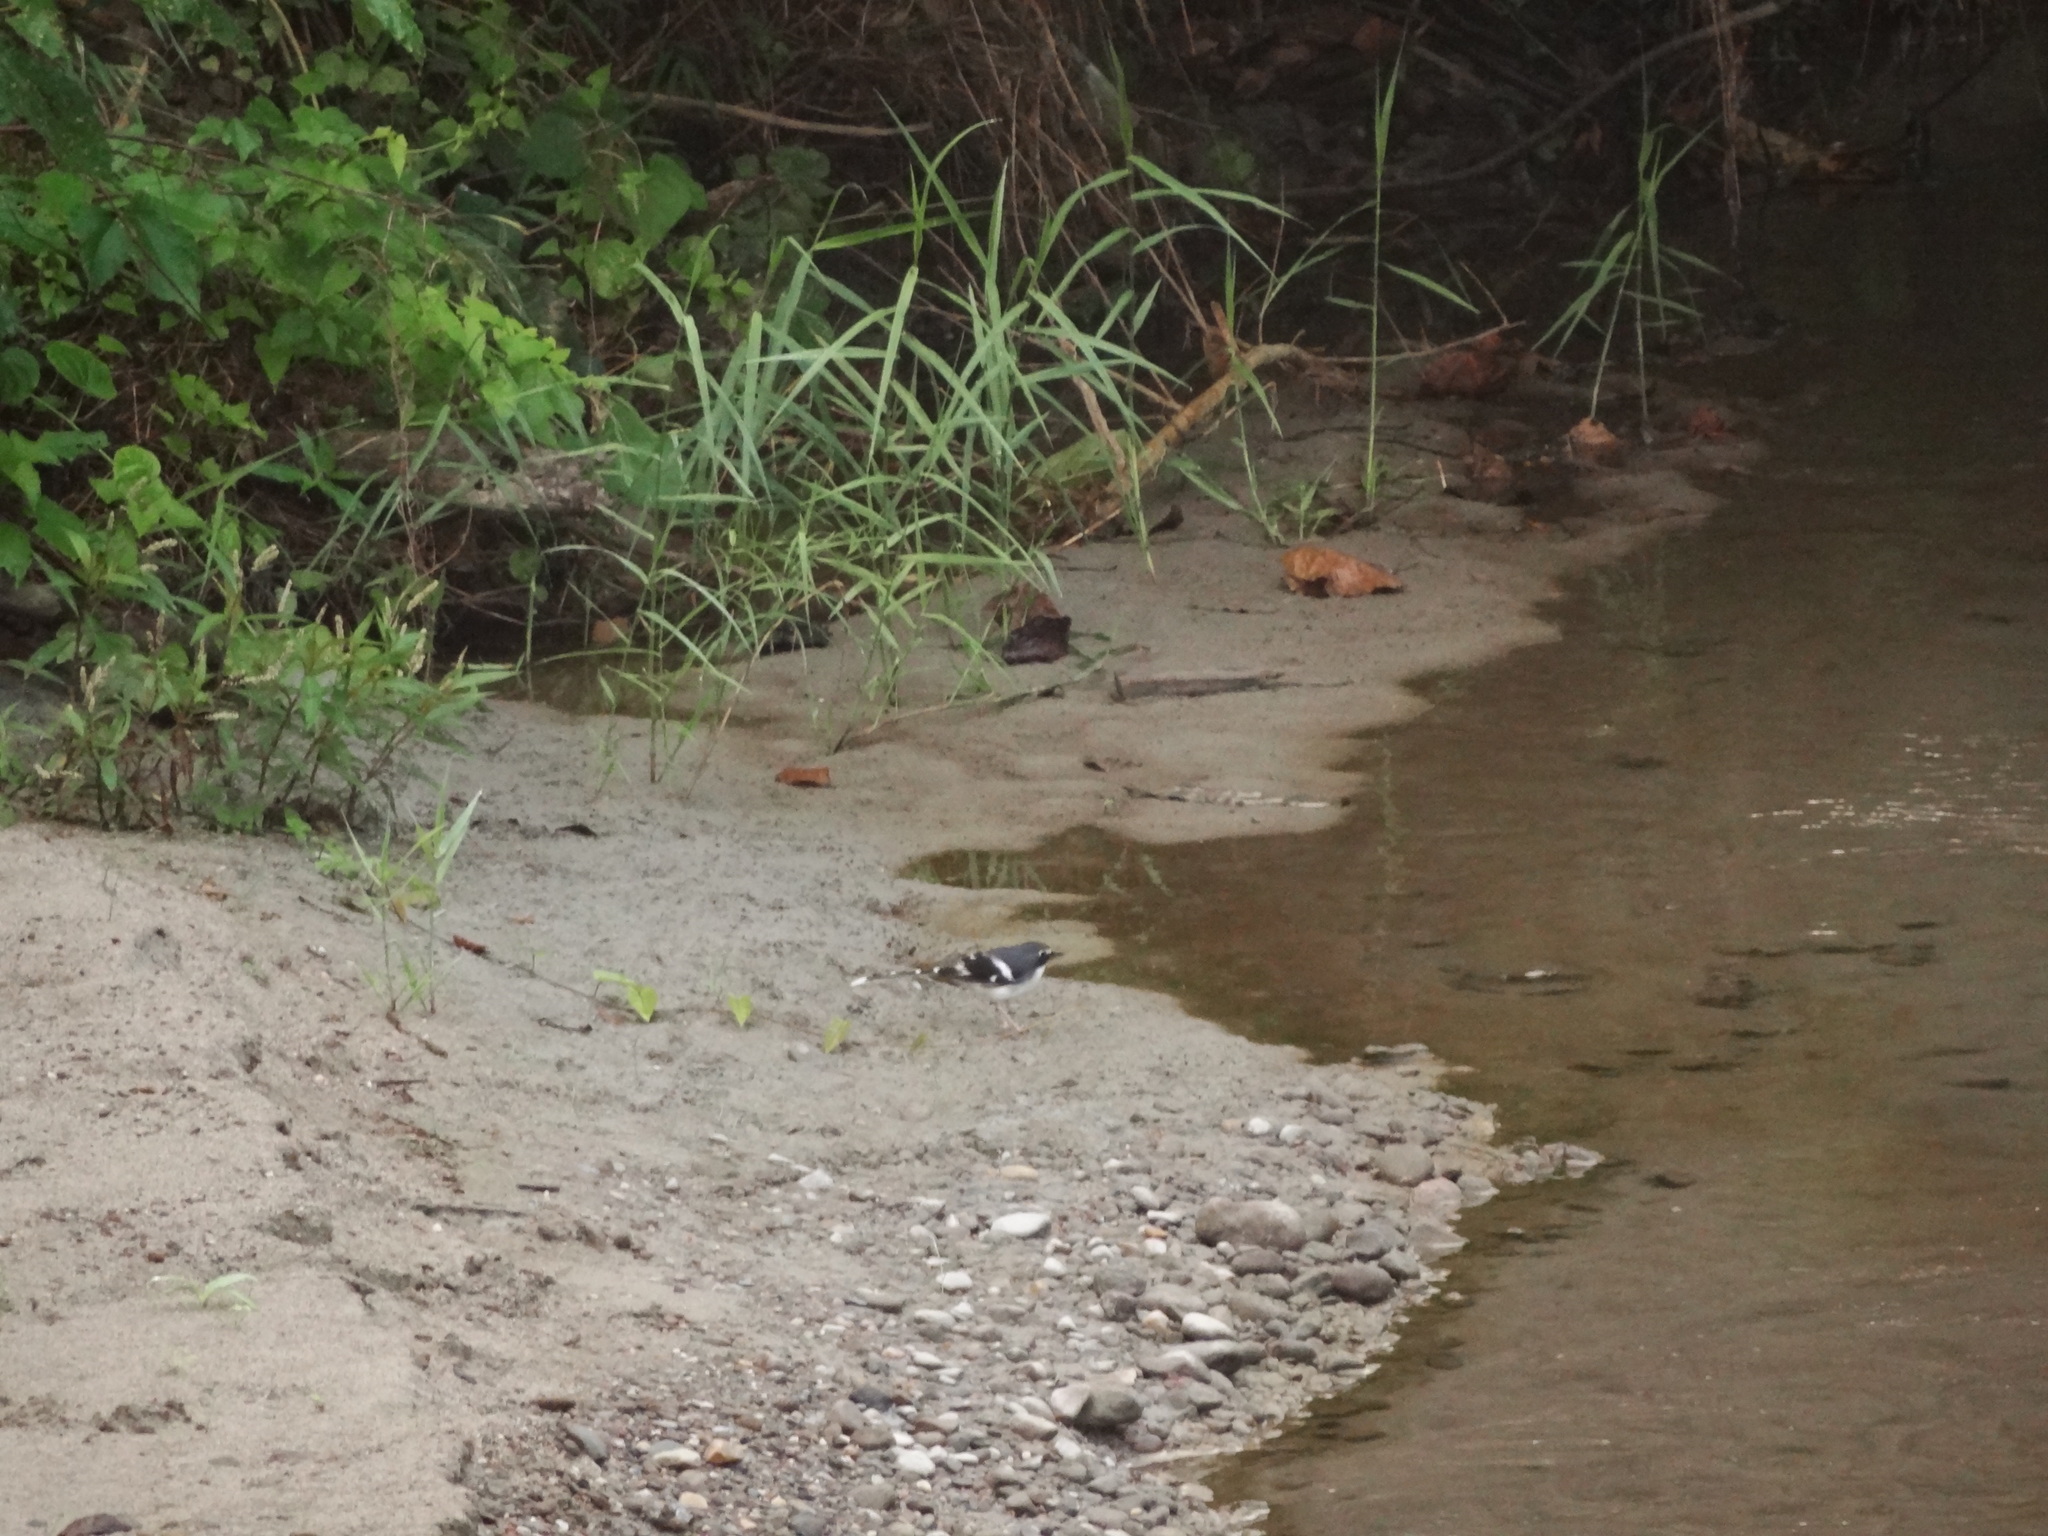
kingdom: Animalia
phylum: Chordata
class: Aves
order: Passeriformes
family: Muscicapidae
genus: Enicurus
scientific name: Enicurus schistaceus
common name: Slaty-backed forktail
